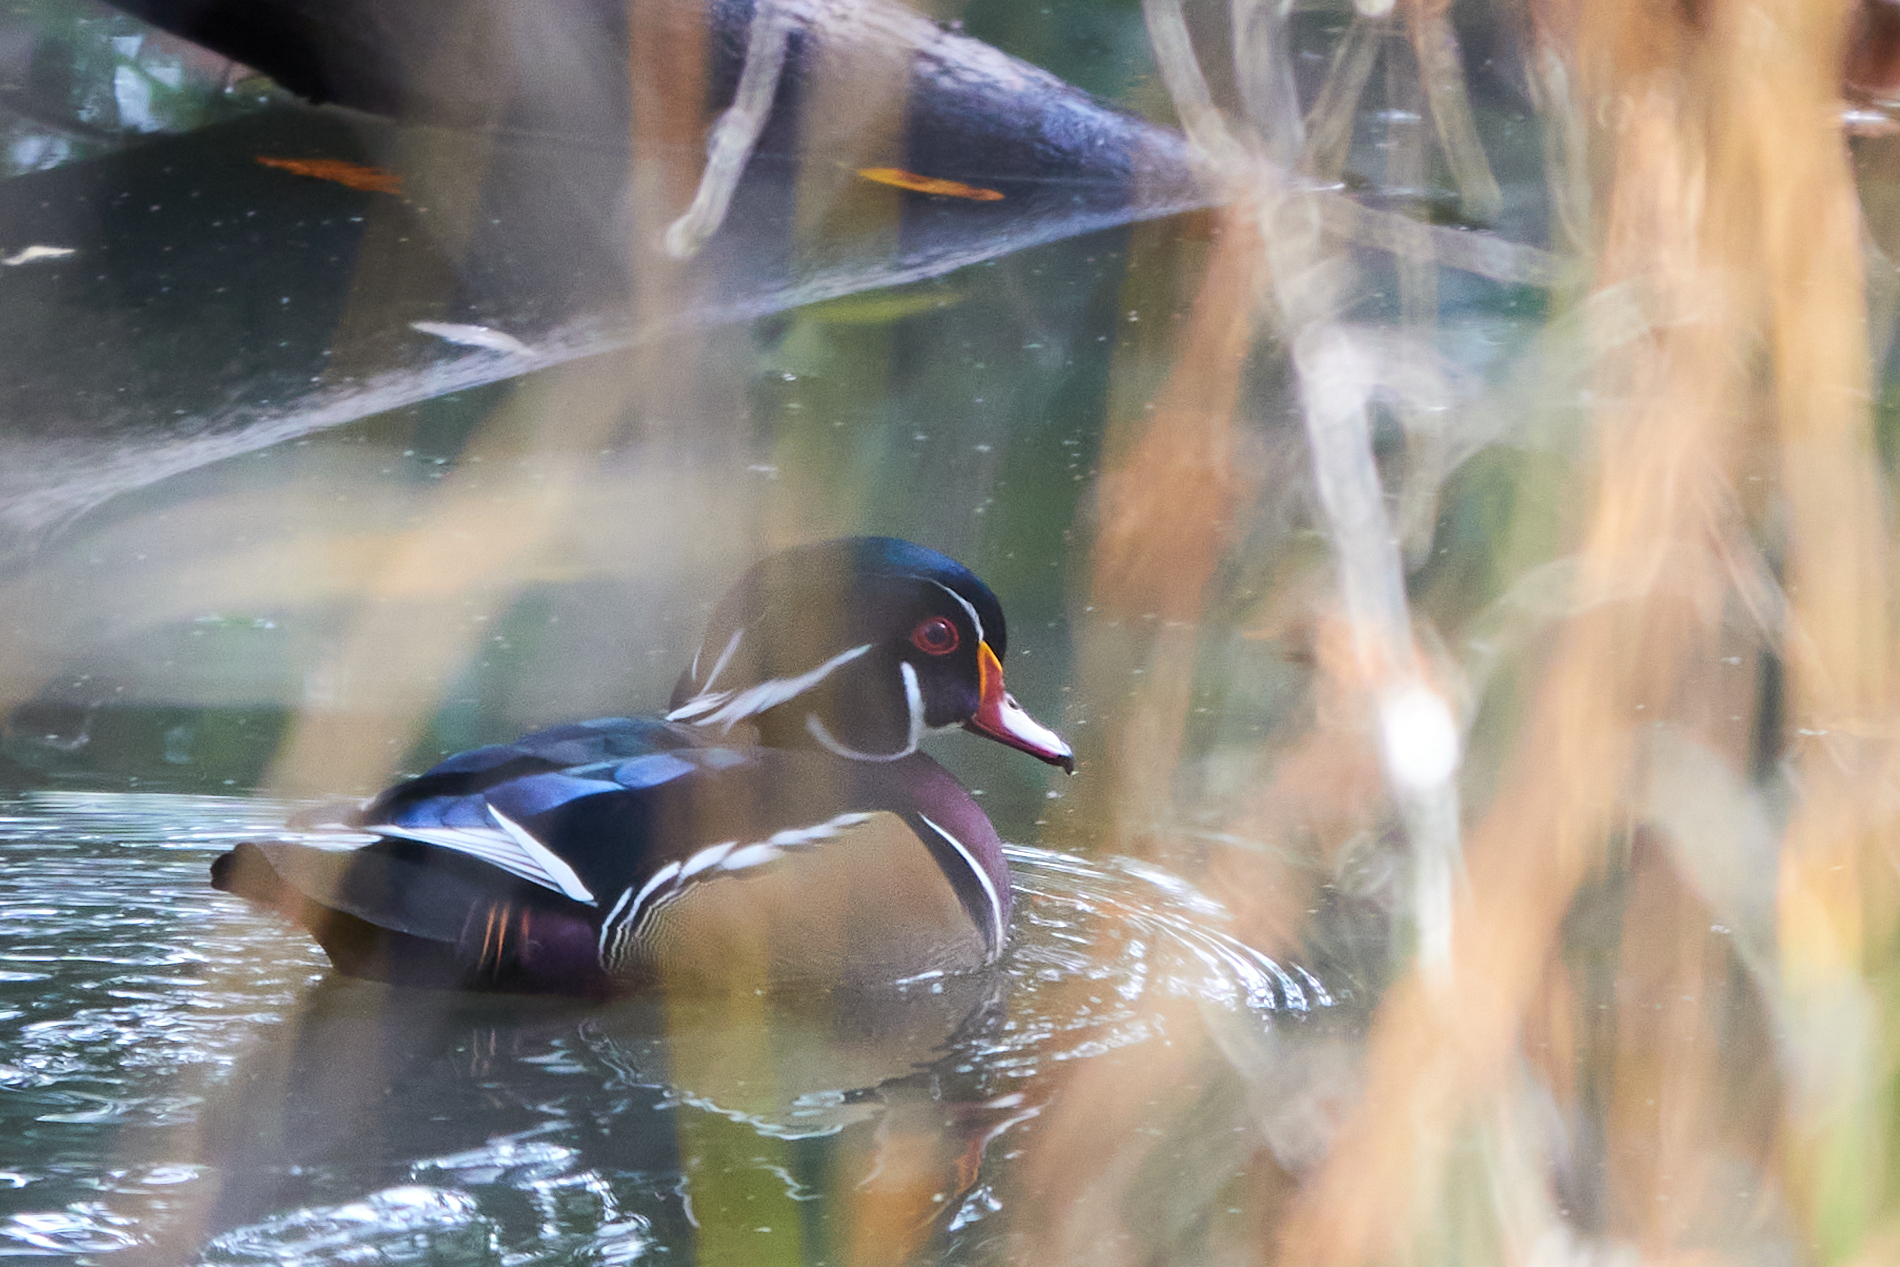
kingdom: Animalia
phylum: Chordata
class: Aves
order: Anseriformes
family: Anatidae
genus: Aix
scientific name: Aix sponsa
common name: Wood duck
